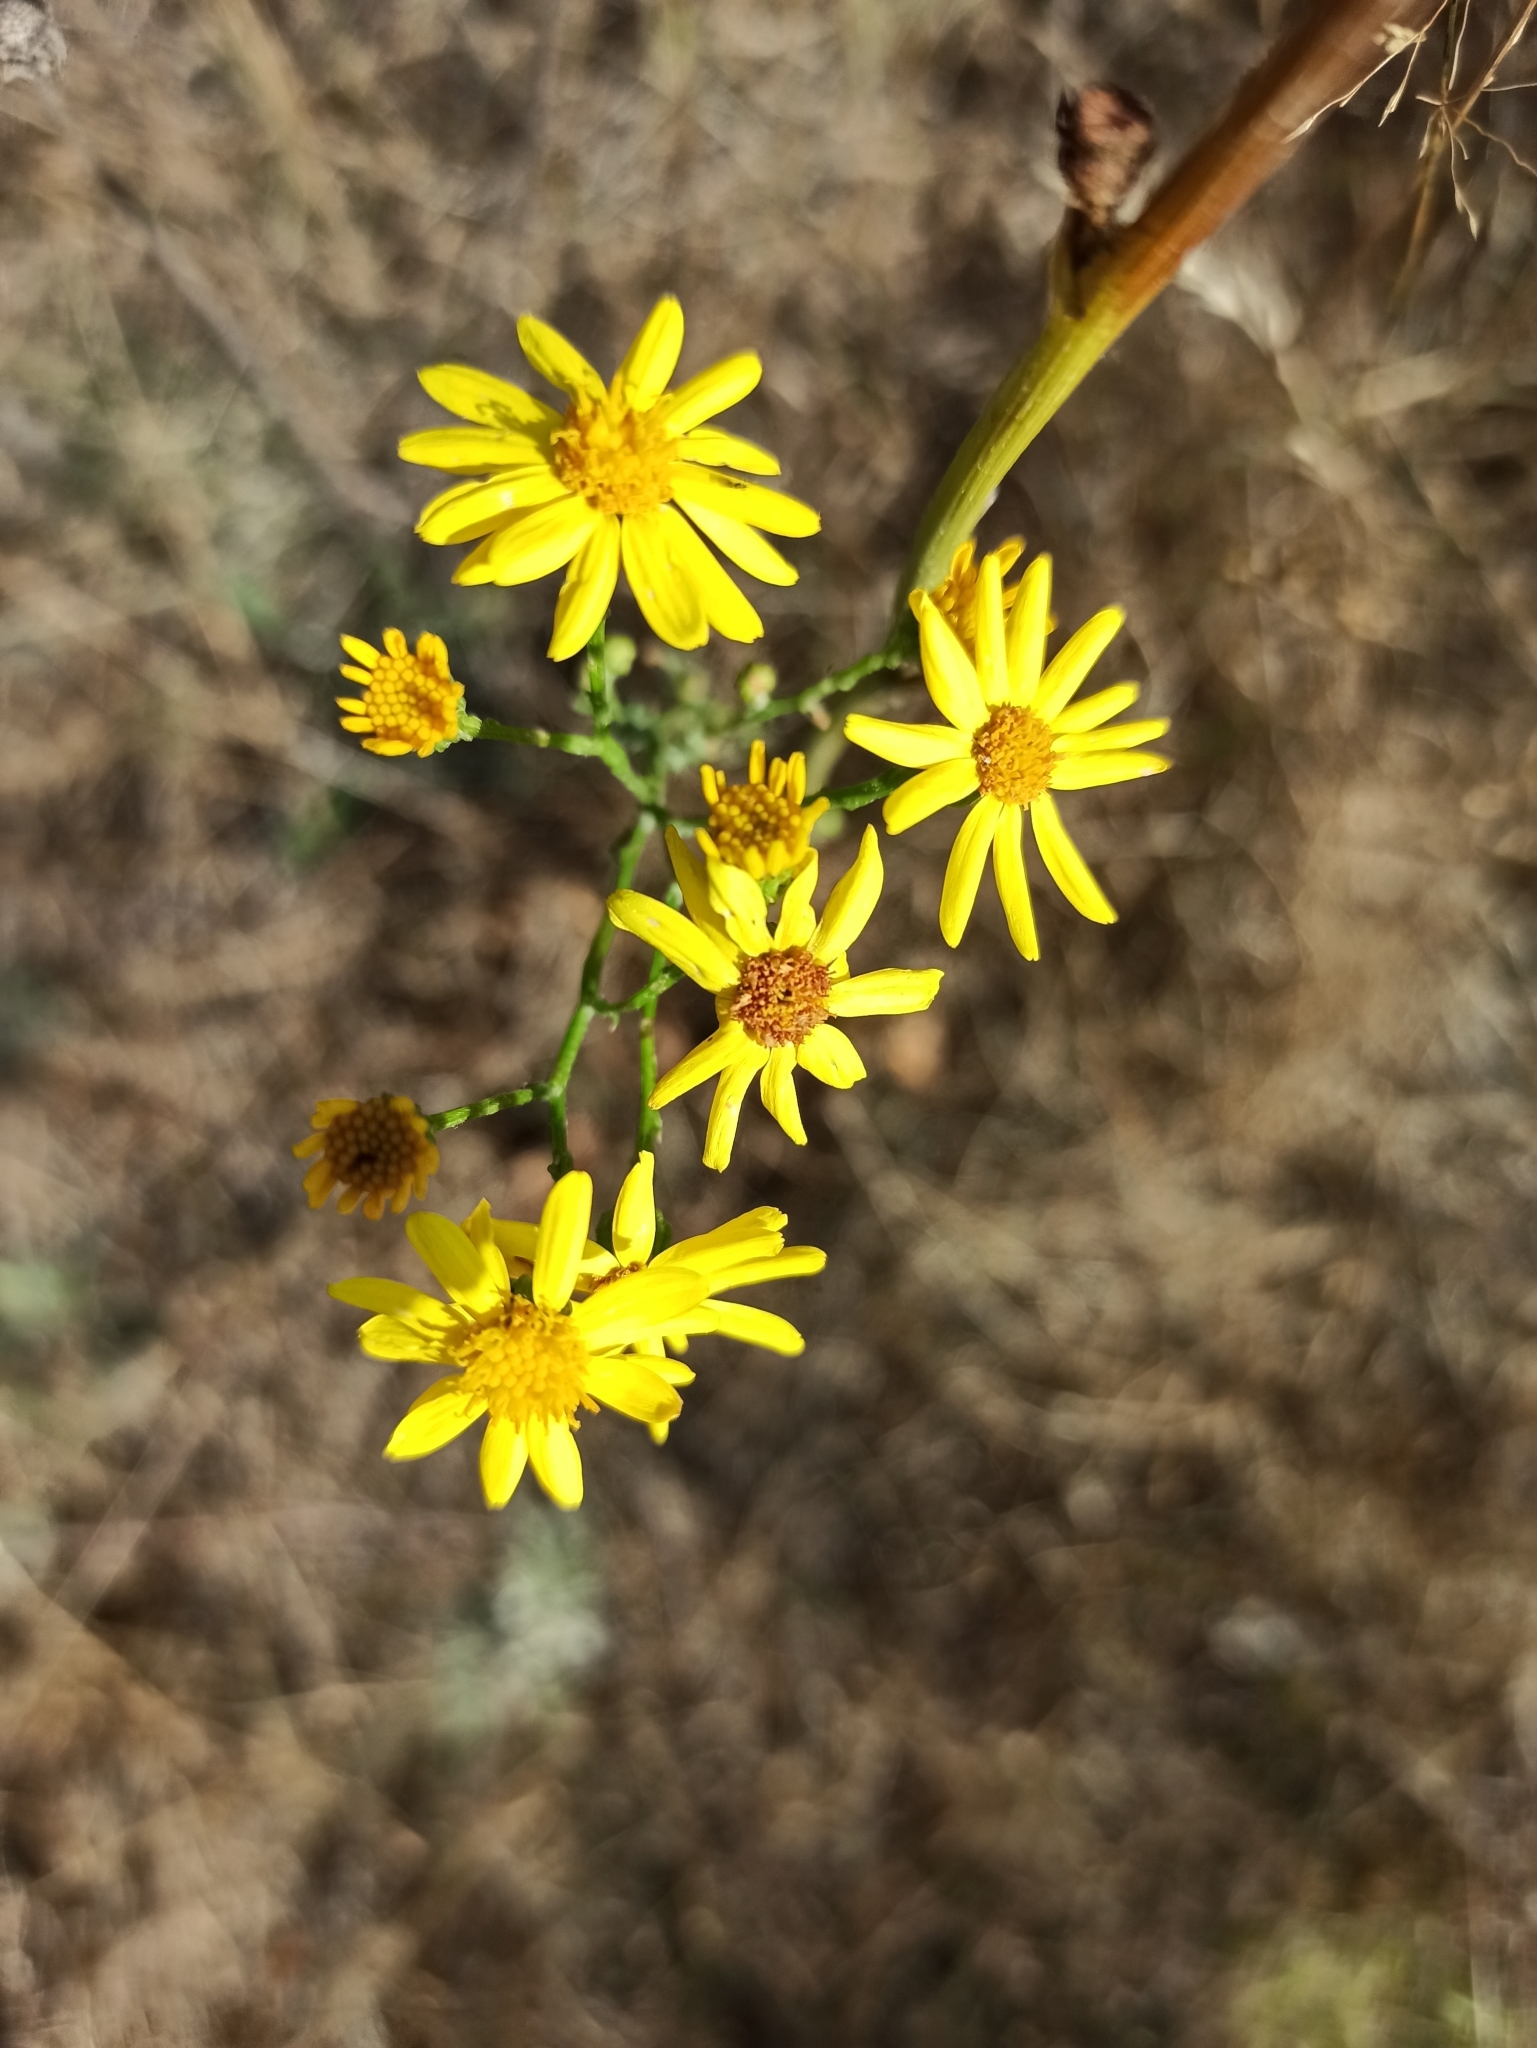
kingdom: Plantae
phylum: Tracheophyta
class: Magnoliopsida
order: Asterales
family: Asteraceae
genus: Jacobaea
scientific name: Jacobaea vulgaris
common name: Stinking willie
